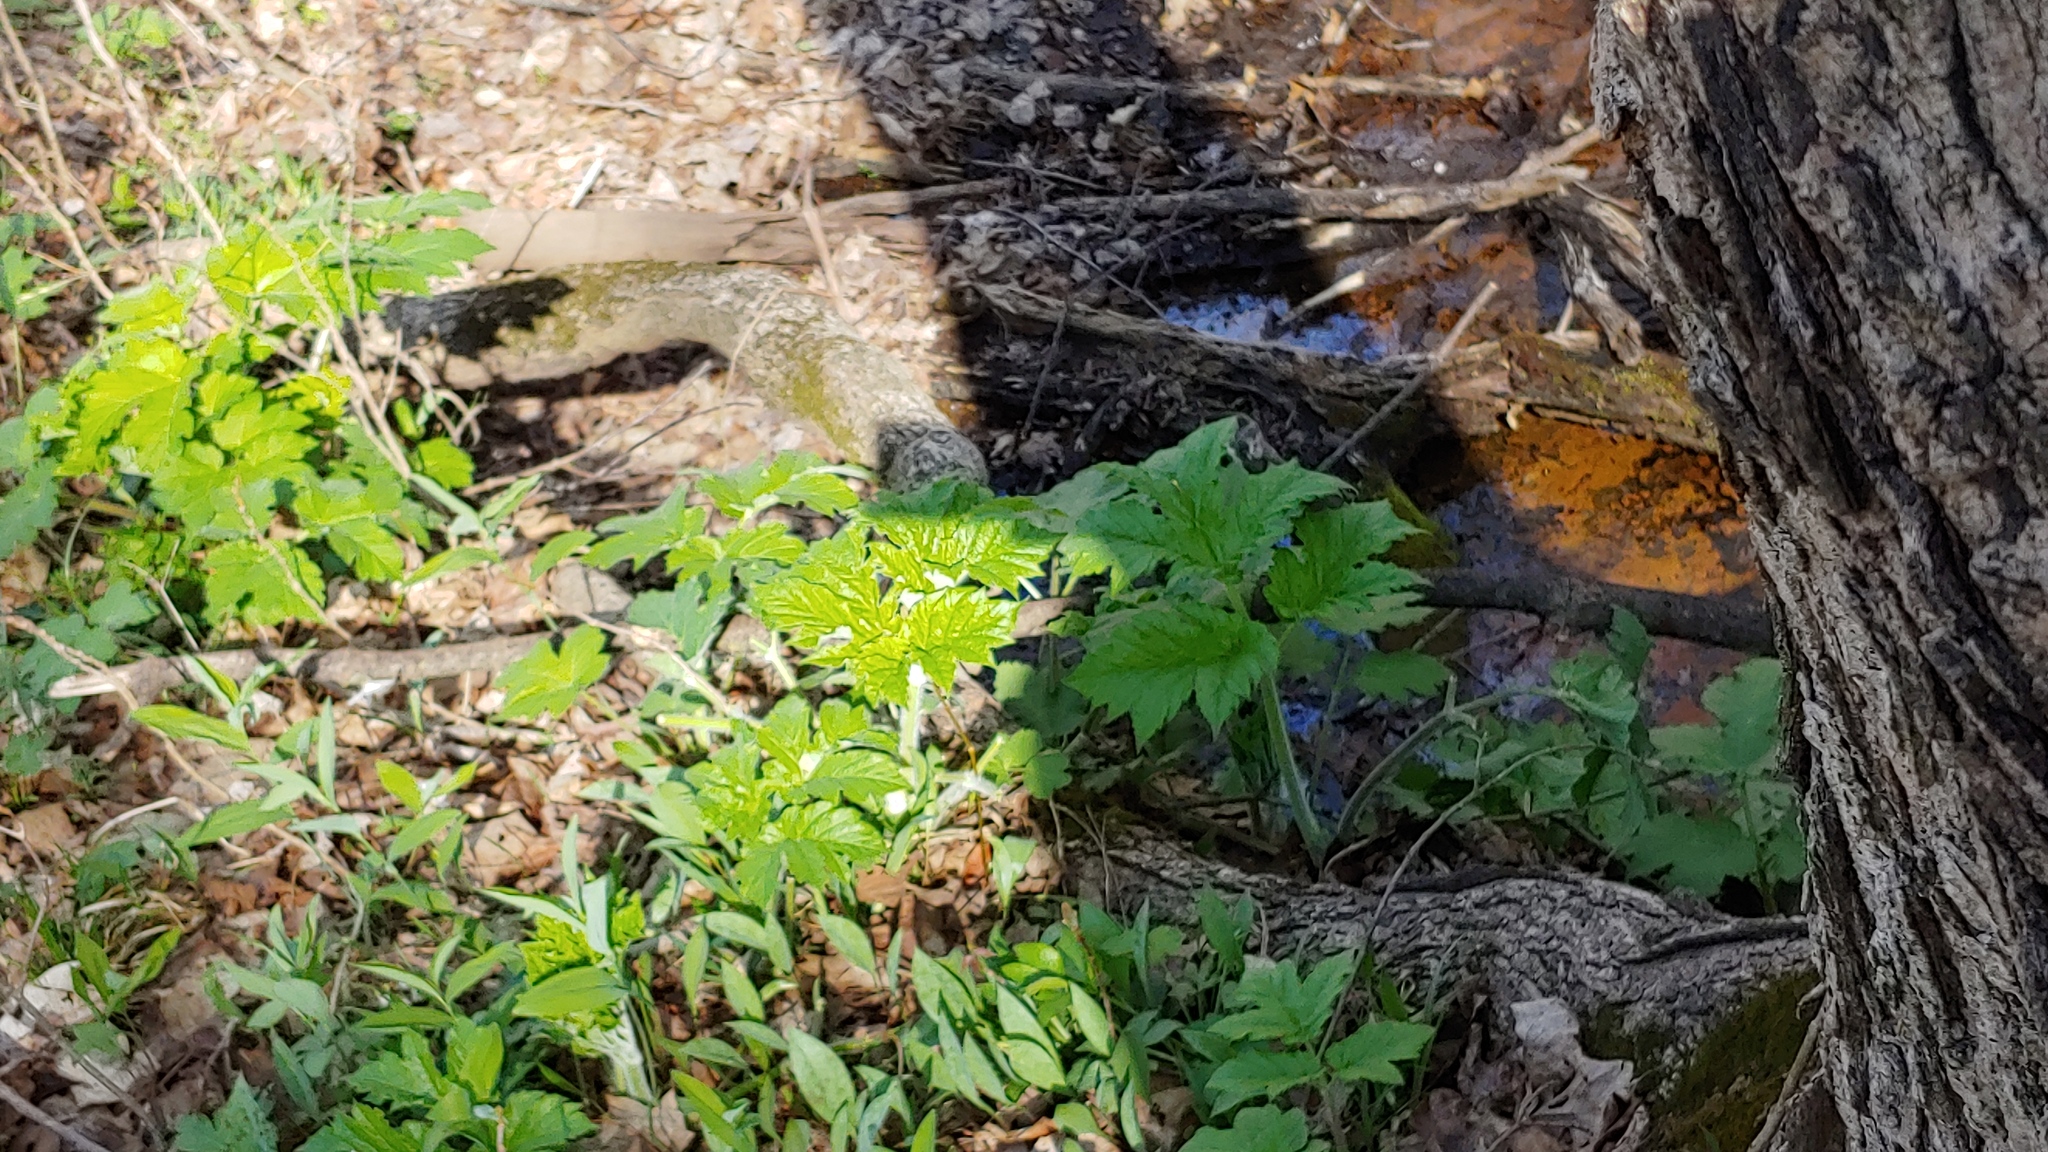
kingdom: Plantae
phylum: Tracheophyta
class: Magnoliopsida
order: Apiales
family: Apiaceae
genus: Heracleum
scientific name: Heracleum maximum
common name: American cow parsnip
